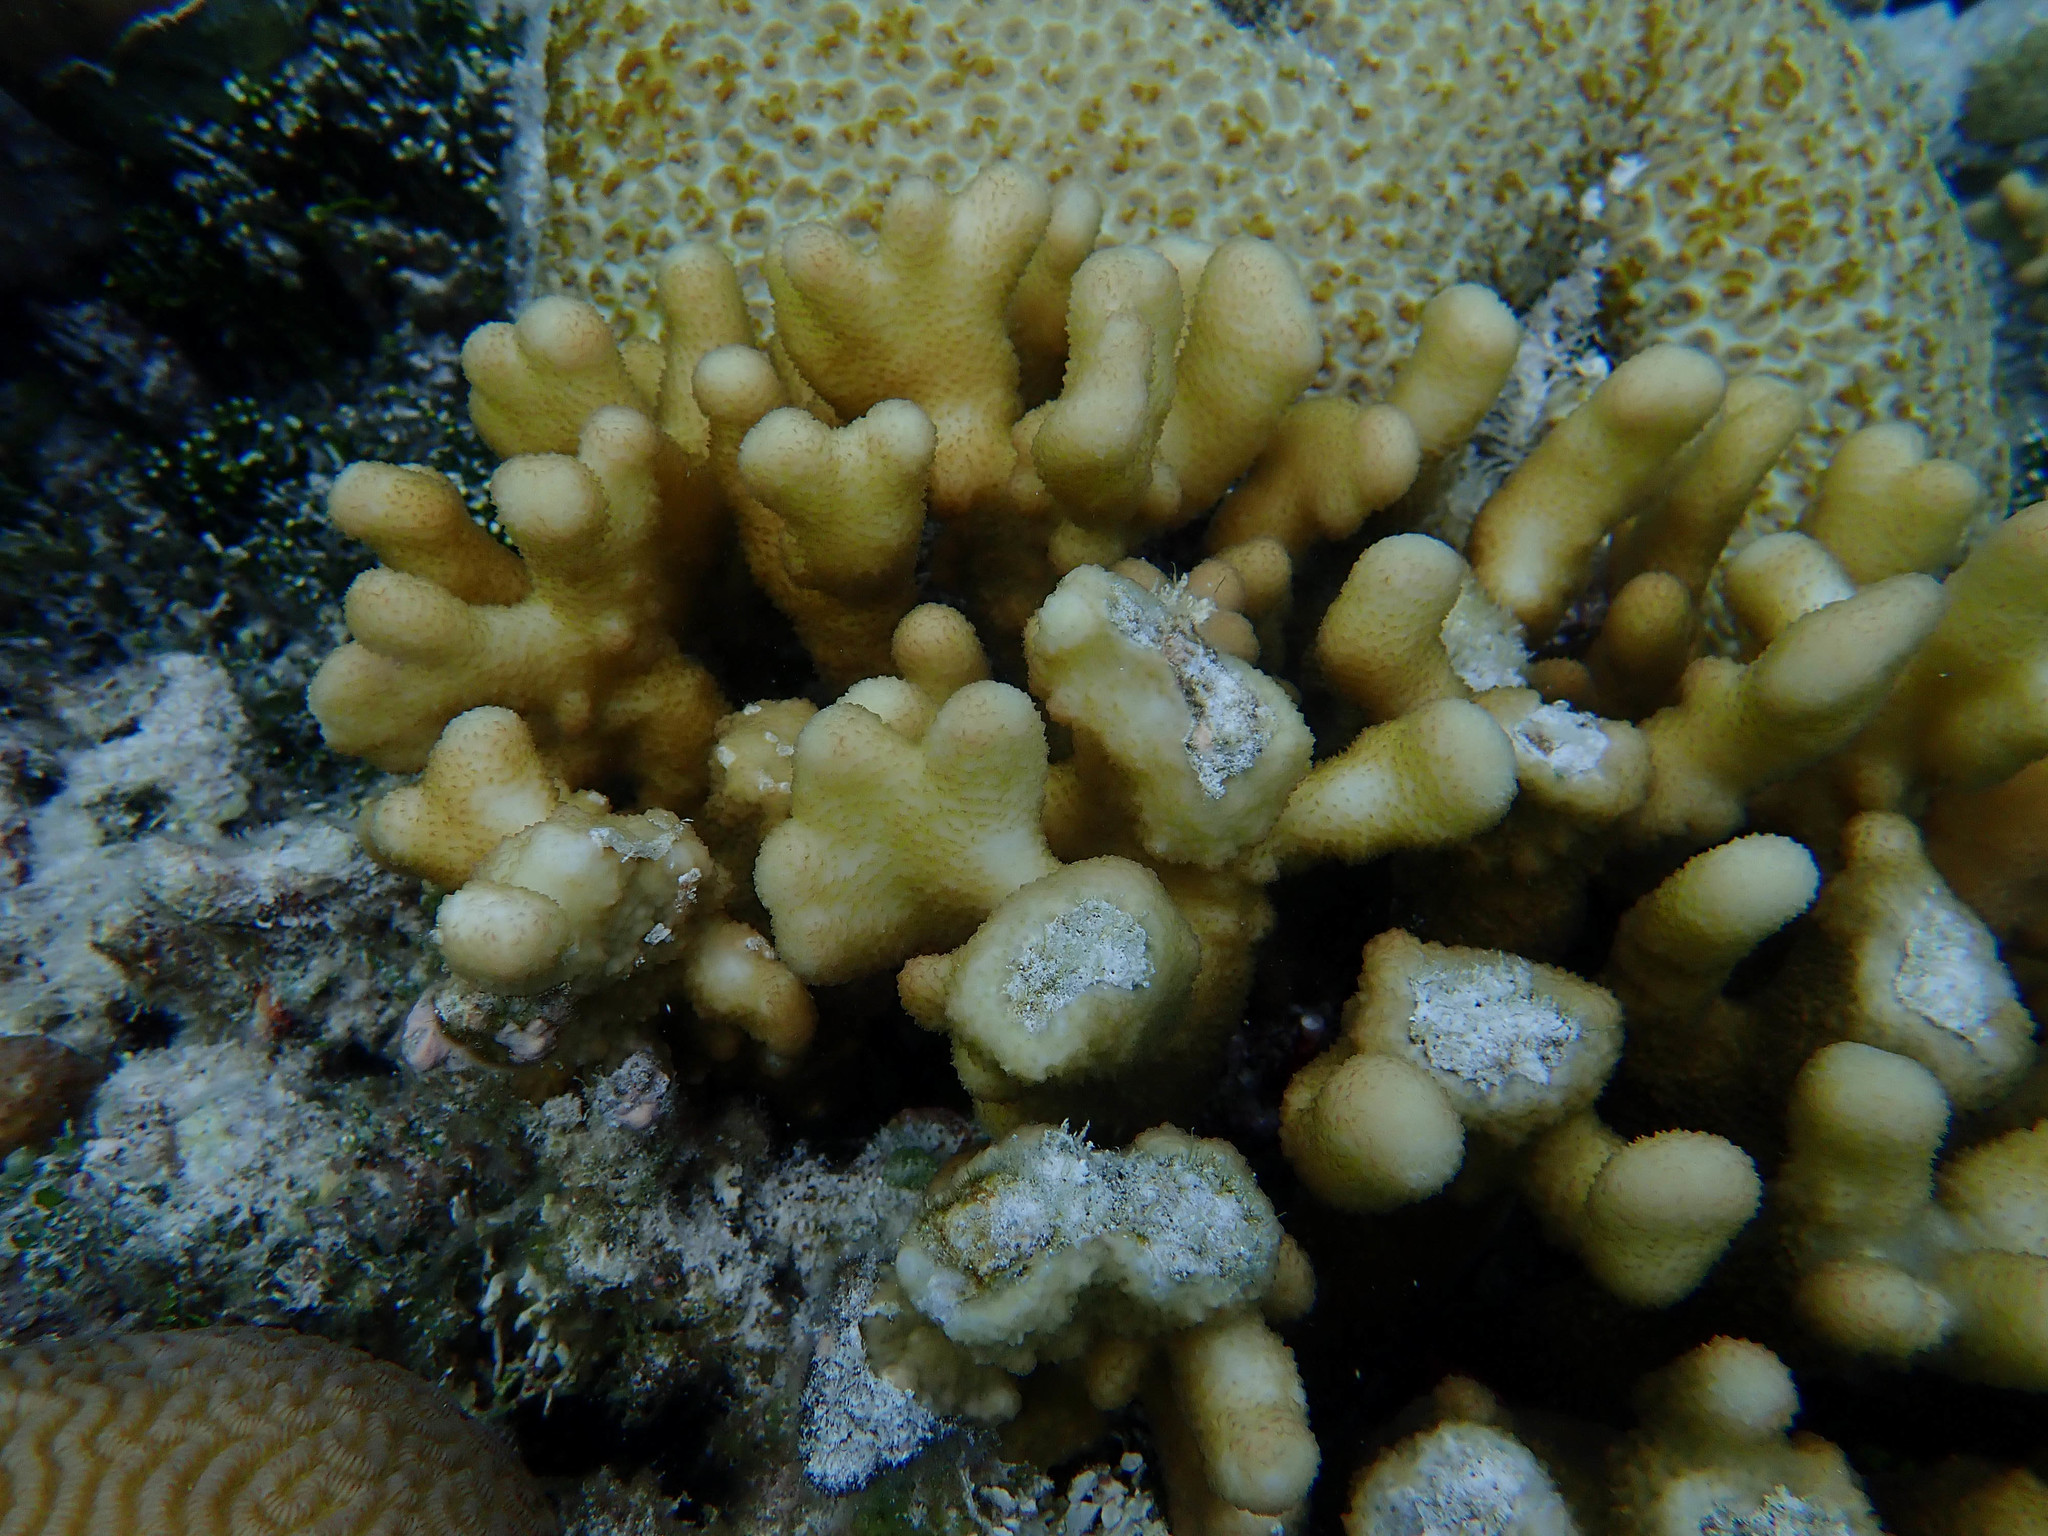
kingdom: Animalia
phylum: Cnidaria
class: Anthozoa
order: Scleractinia
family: Pocilloporidae
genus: Stylophora
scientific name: Stylophora pistillata
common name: Hood coral
